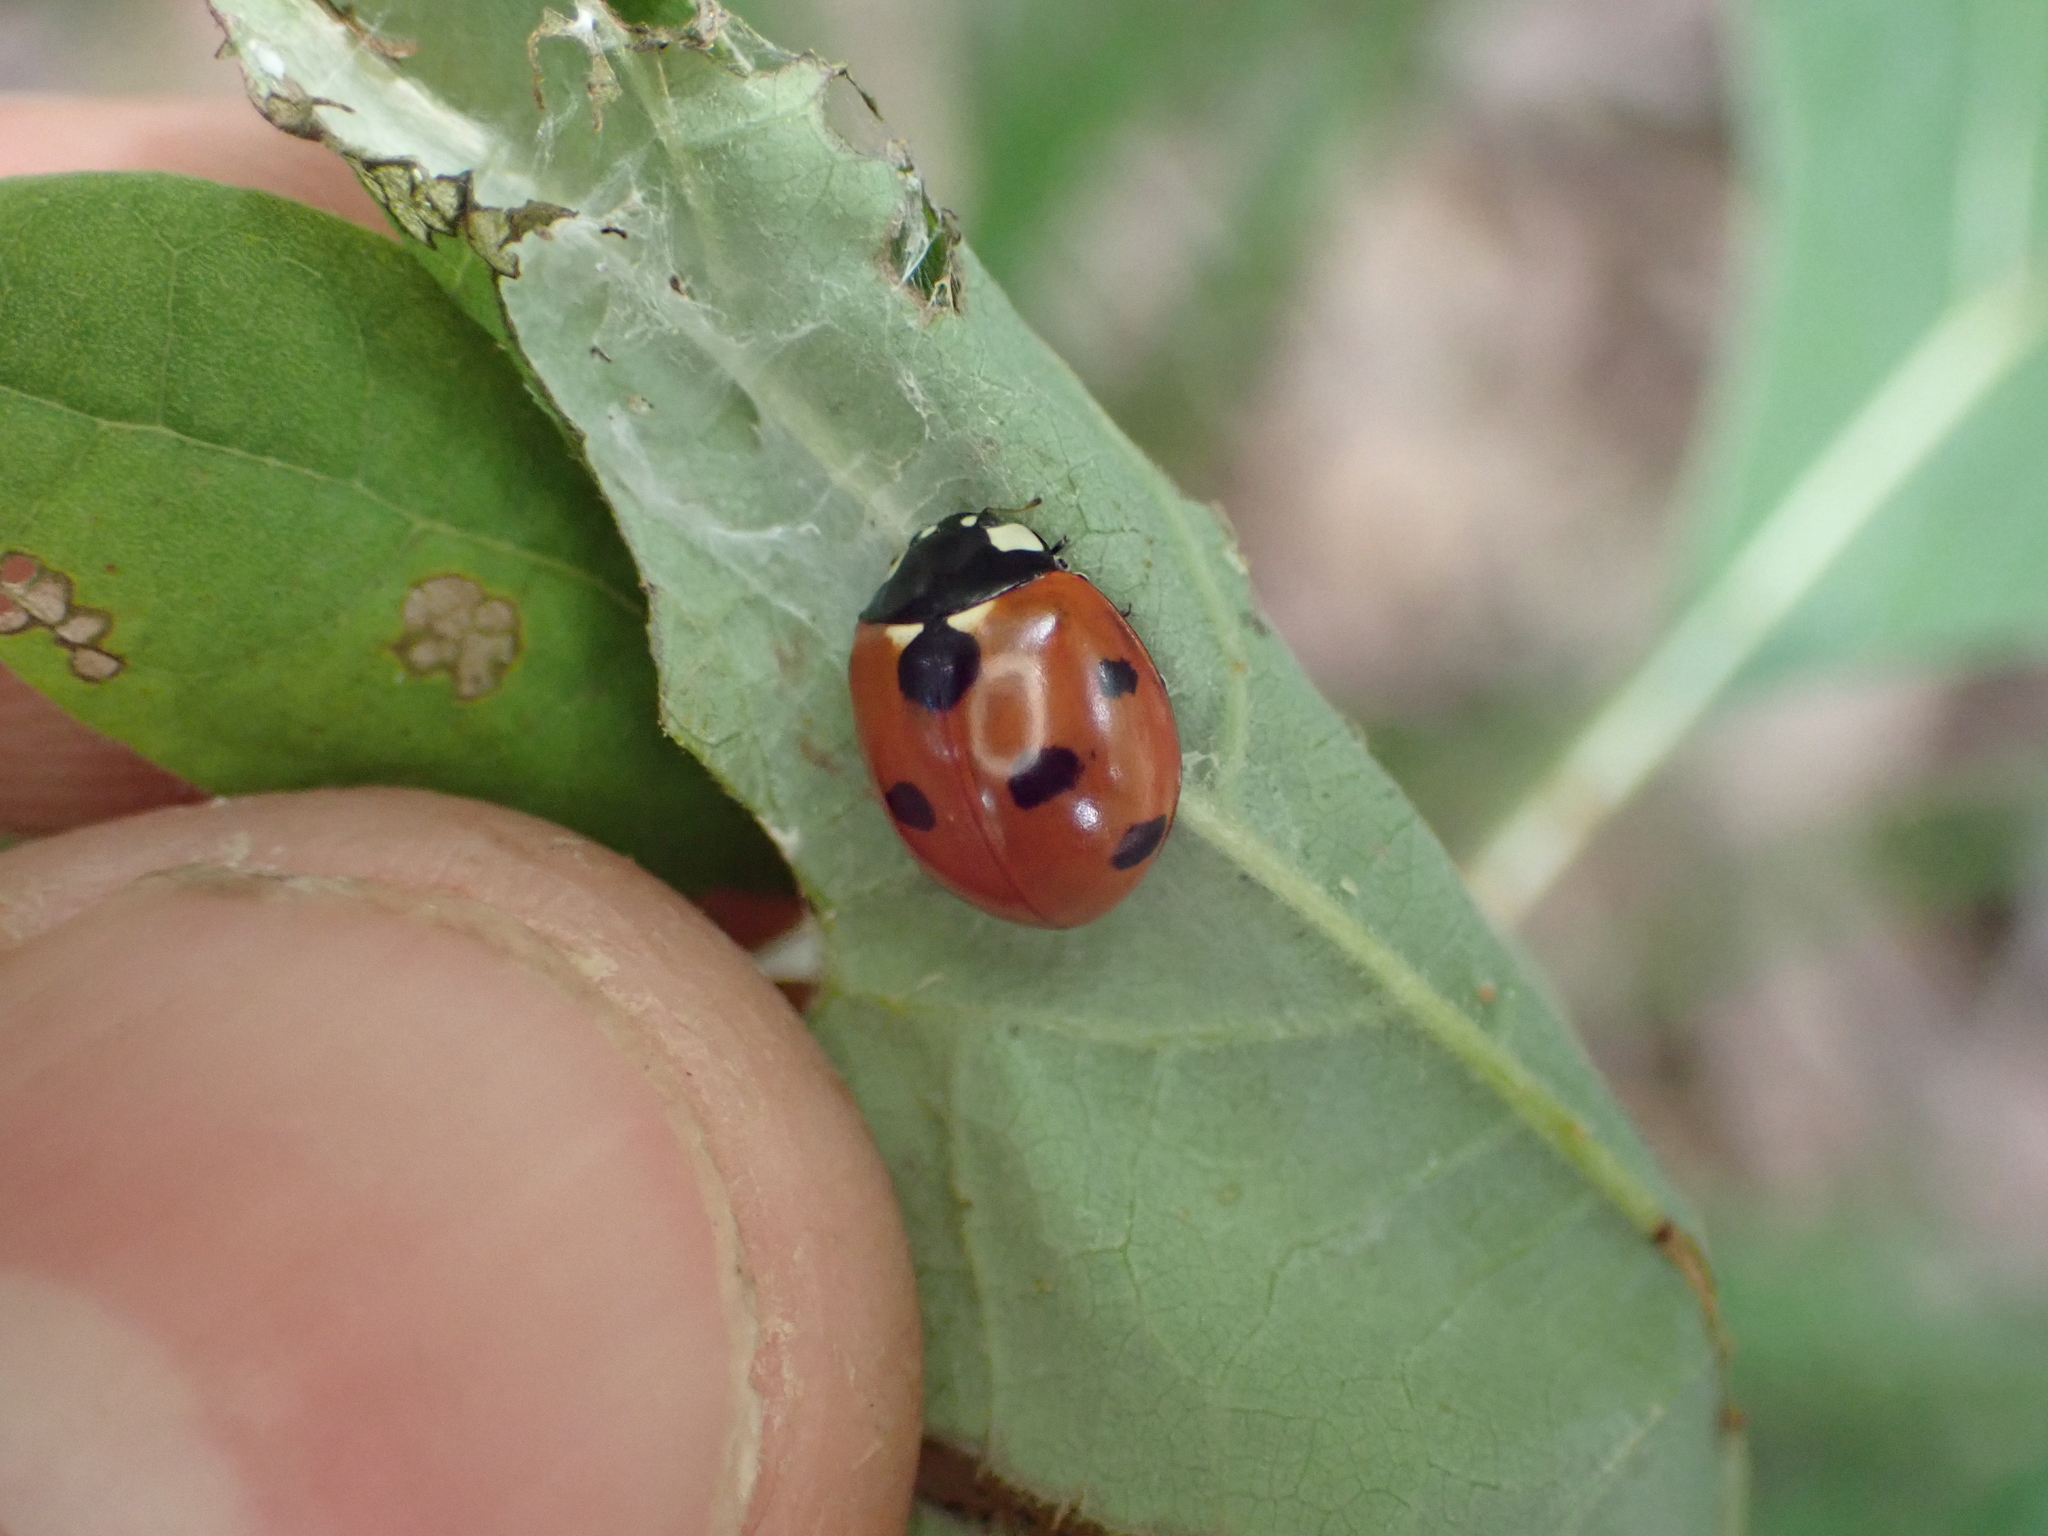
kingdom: Animalia
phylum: Arthropoda
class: Insecta
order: Coleoptera
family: Coccinellidae
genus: Coccinella
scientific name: Coccinella septempunctata
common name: Sevenspotted lady beetle
